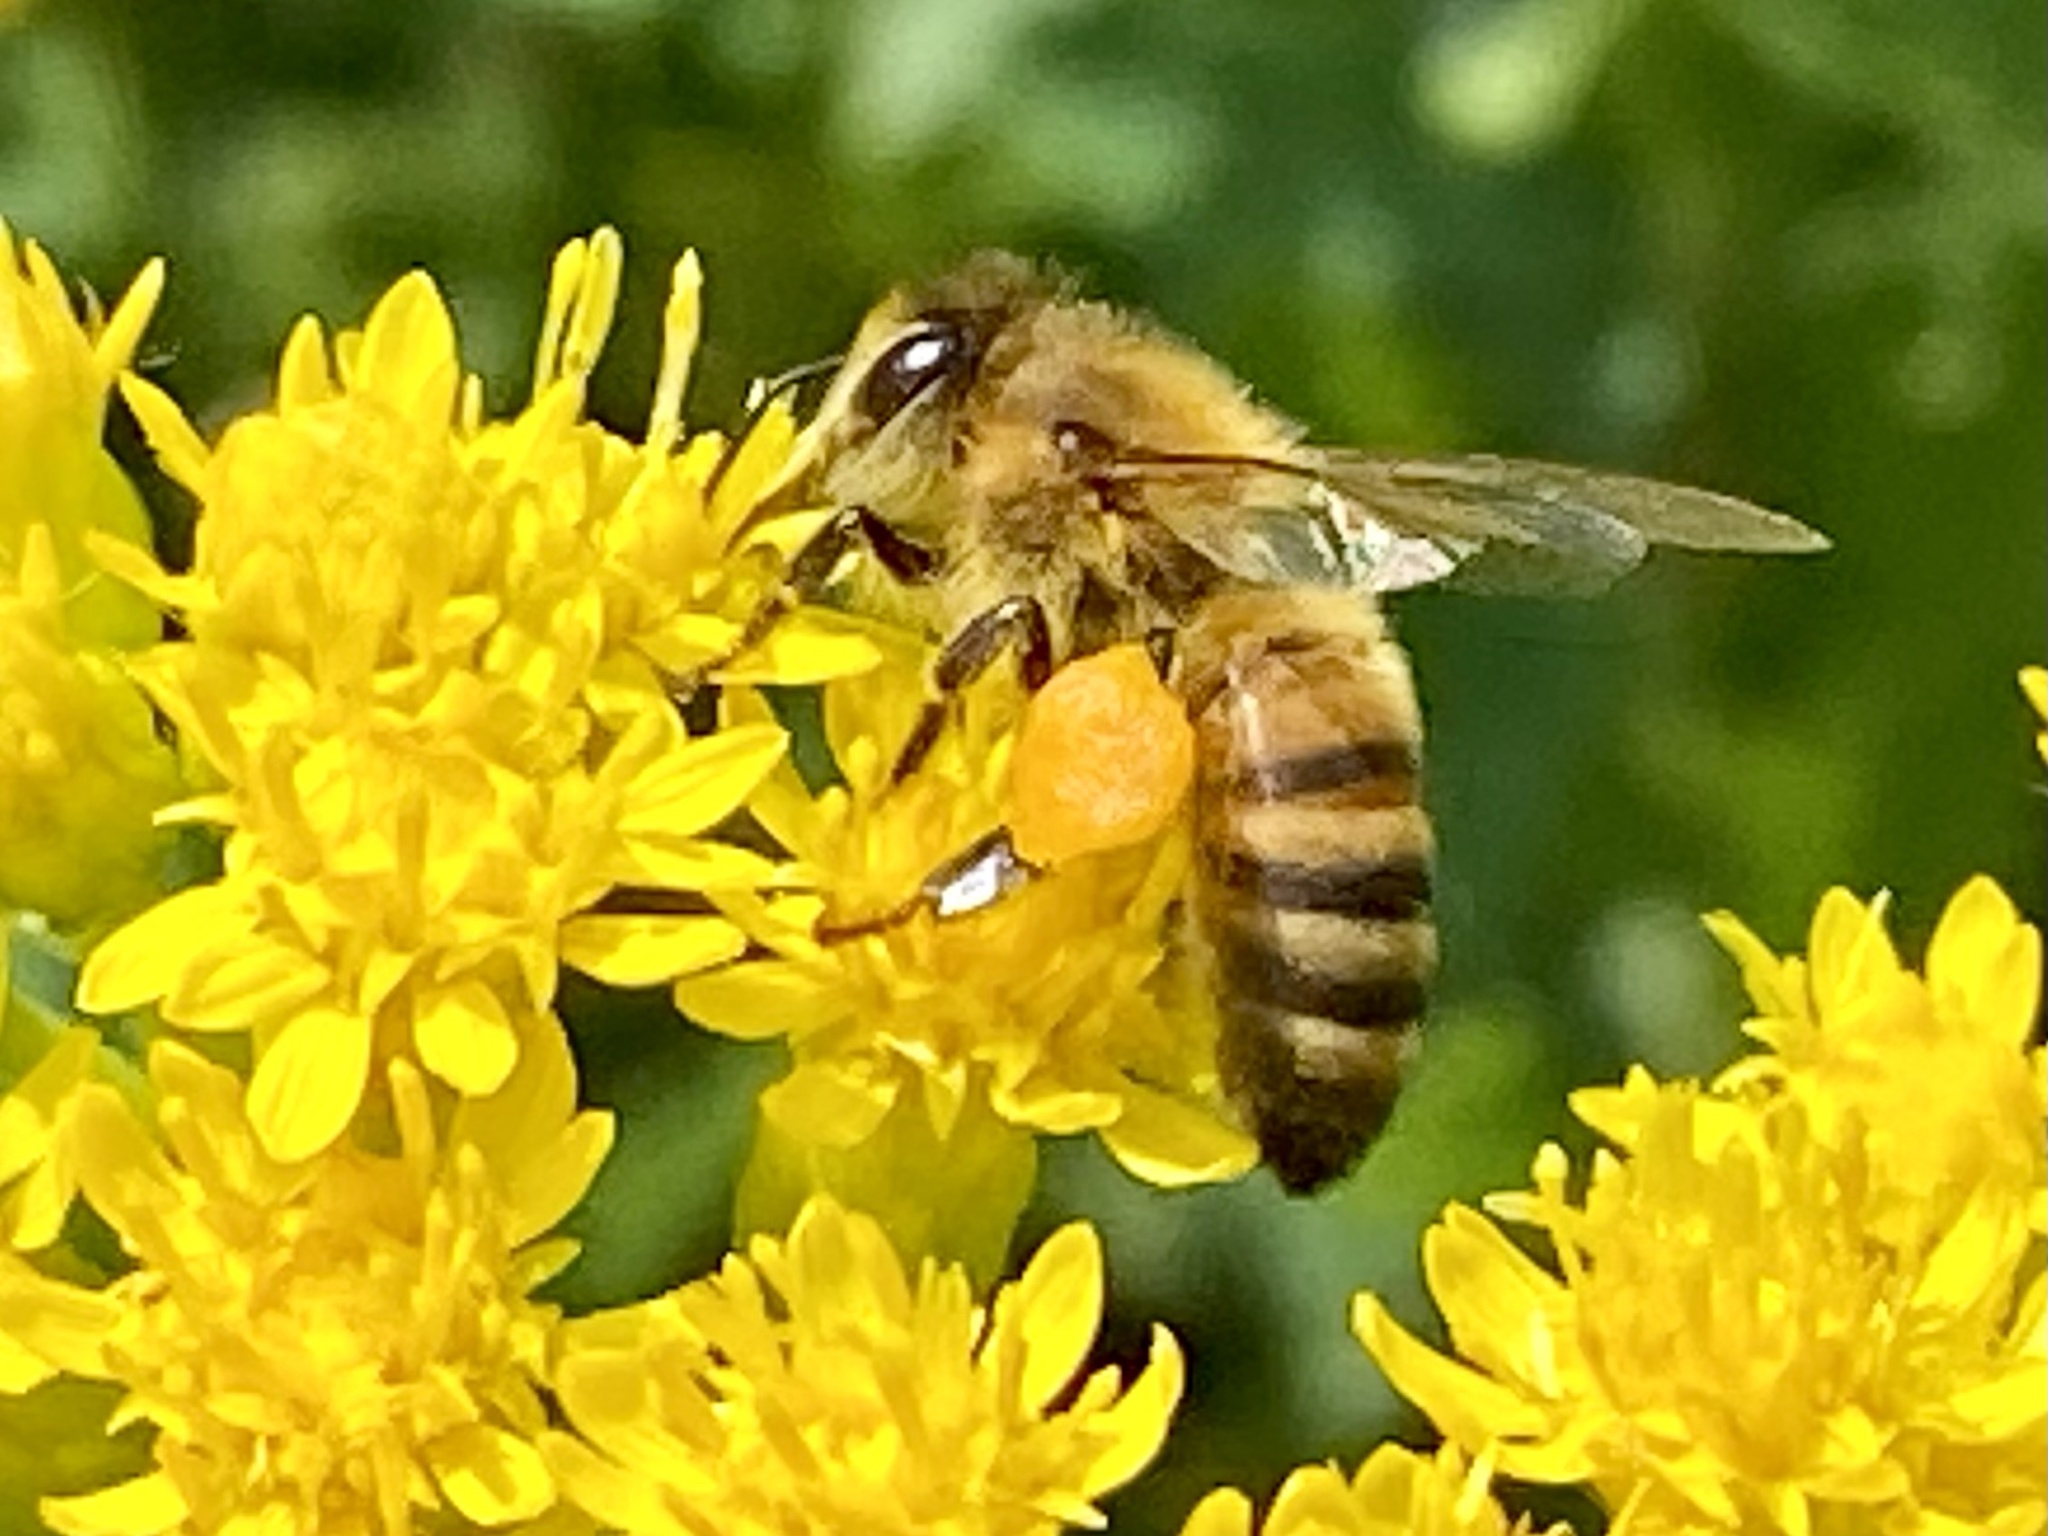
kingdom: Animalia
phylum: Arthropoda
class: Insecta
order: Hymenoptera
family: Apidae
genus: Apis
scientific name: Apis mellifera
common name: Honey bee
